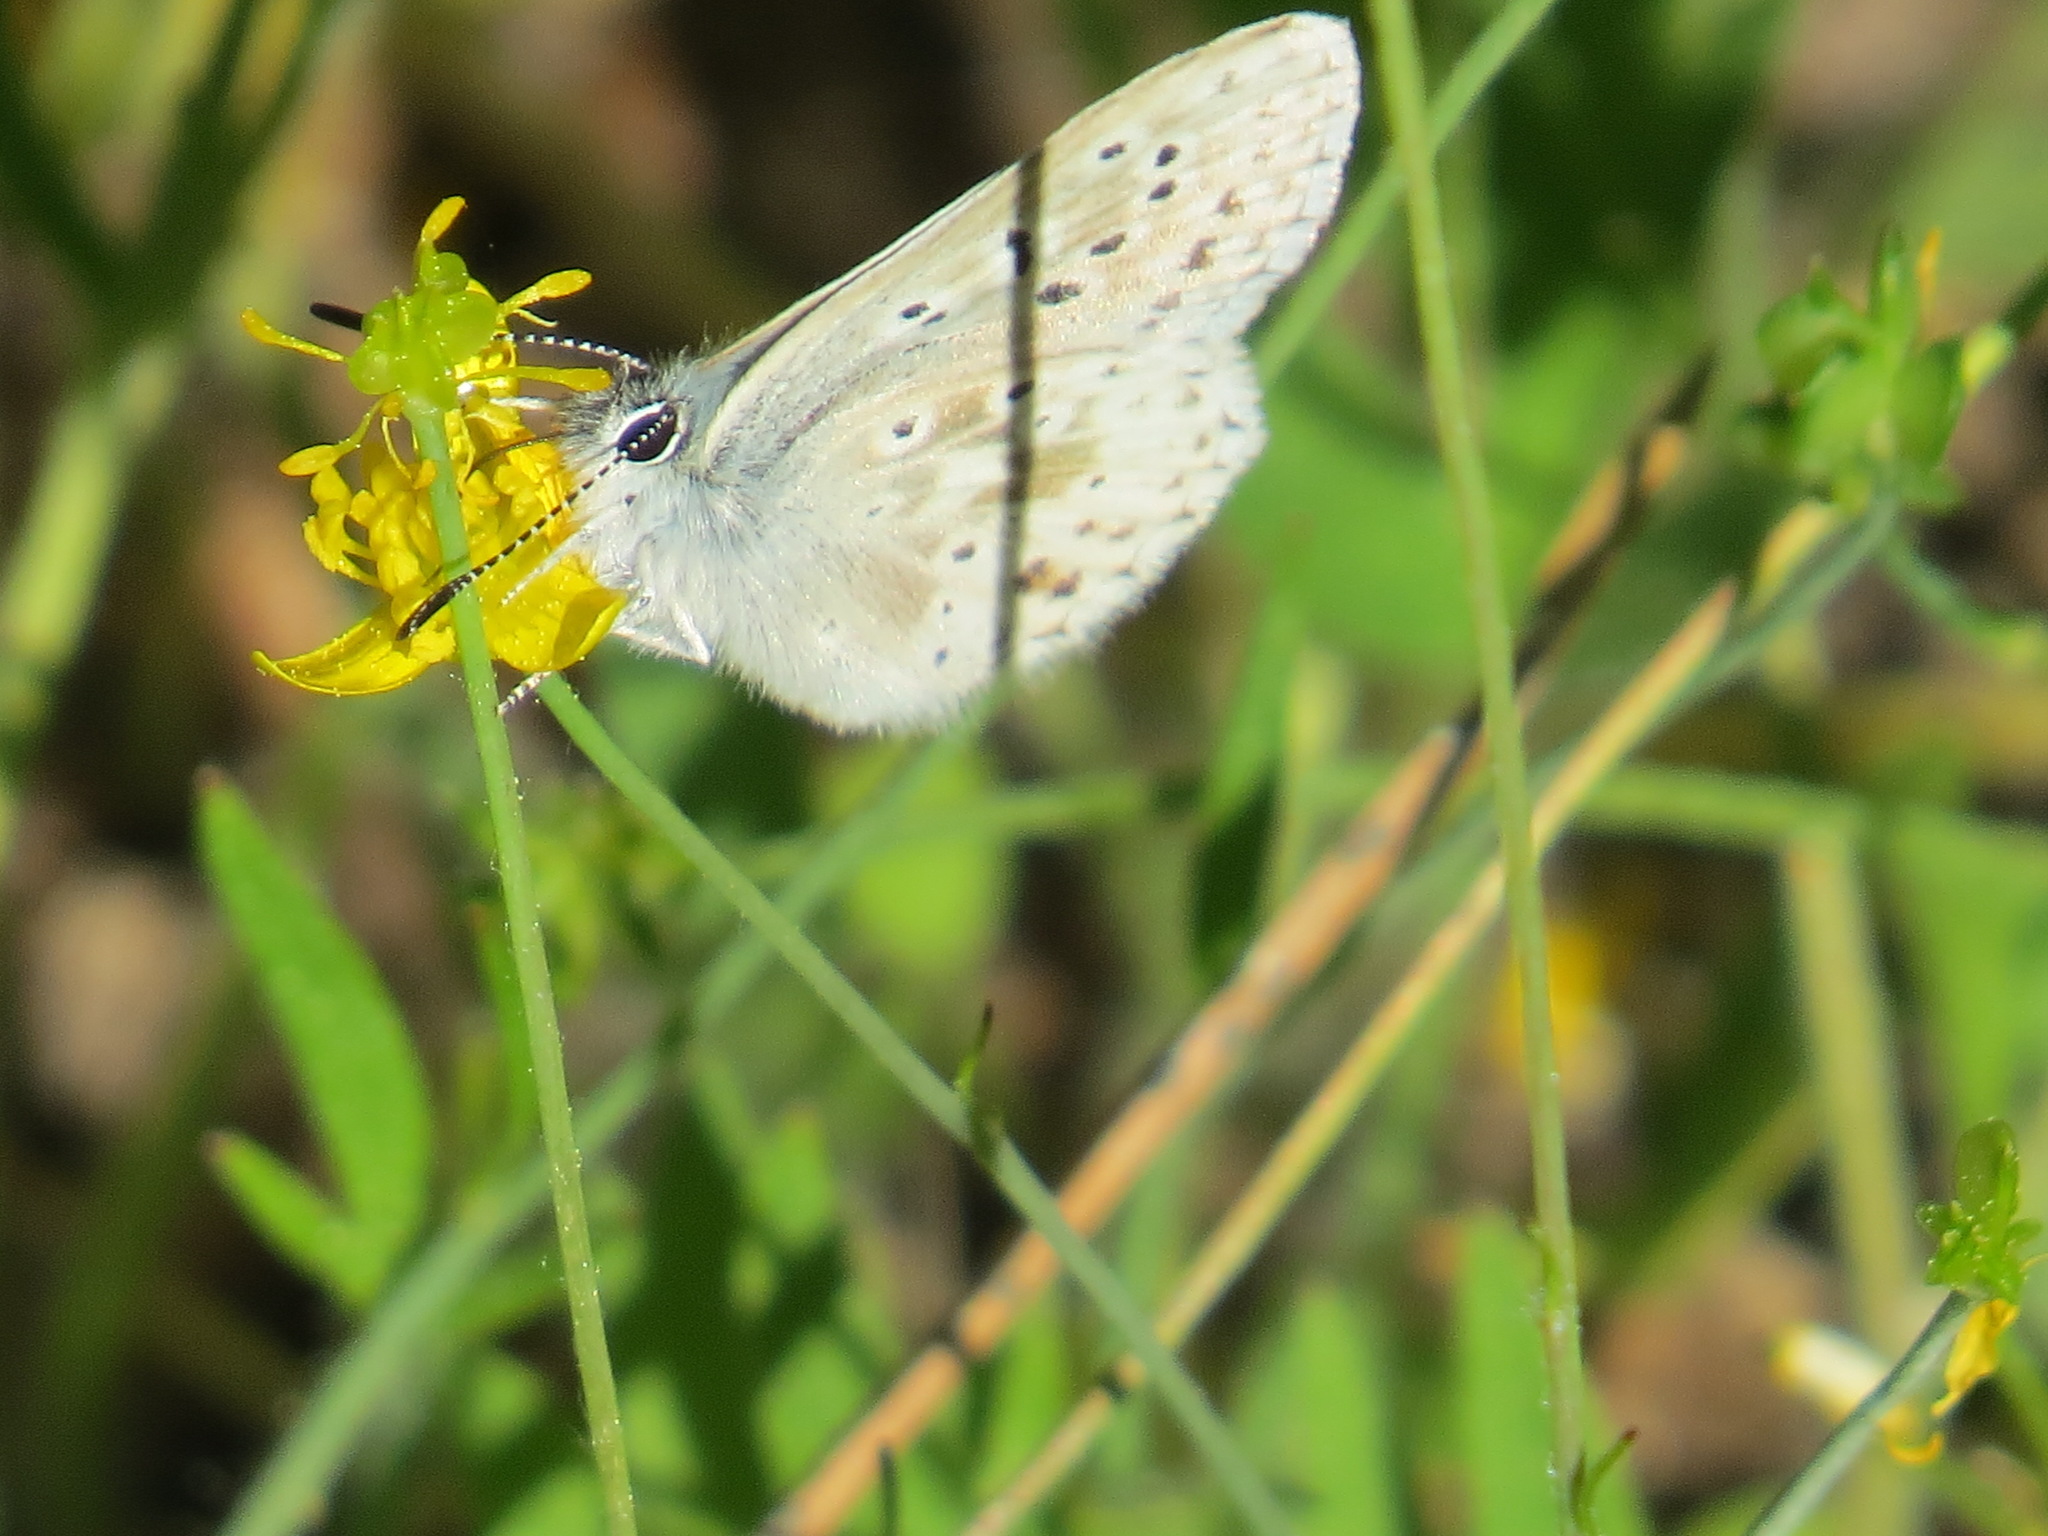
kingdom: Animalia
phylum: Arthropoda
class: Insecta
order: Lepidoptera
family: Lycaenidae
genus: Agriades
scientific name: Agriades podarce
